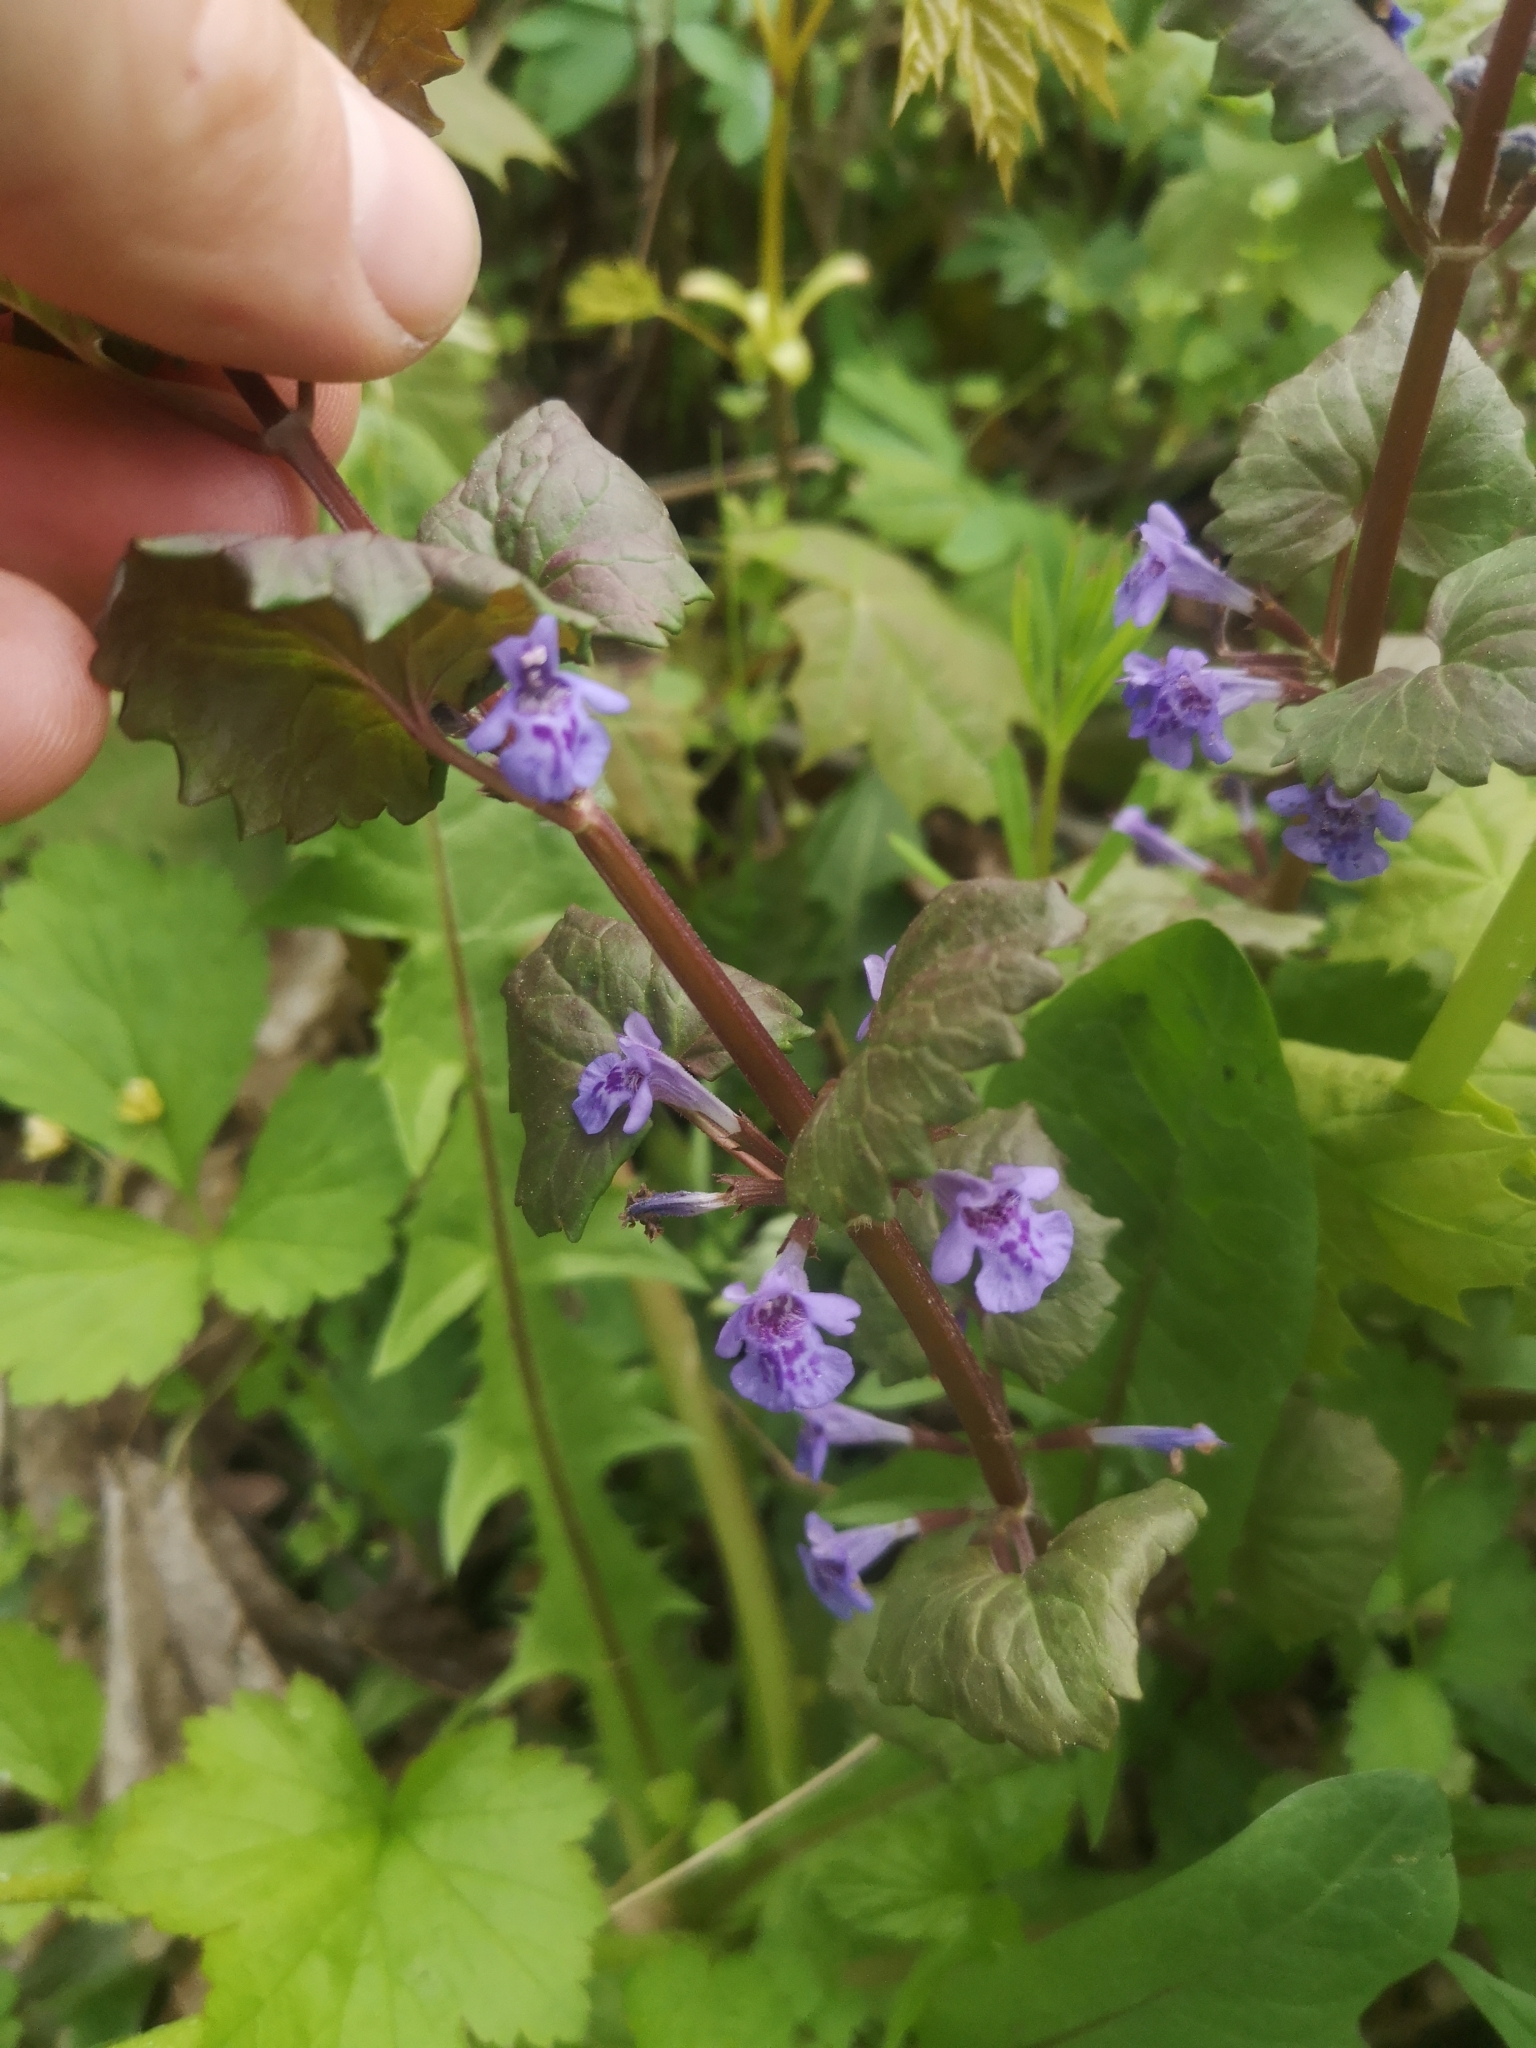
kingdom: Plantae
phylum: Tracheophyta
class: Magnoliopsida
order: Lamiales
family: Lamiaceae
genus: Glechoma
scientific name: Glechoma hederacea
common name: Ground ivy
